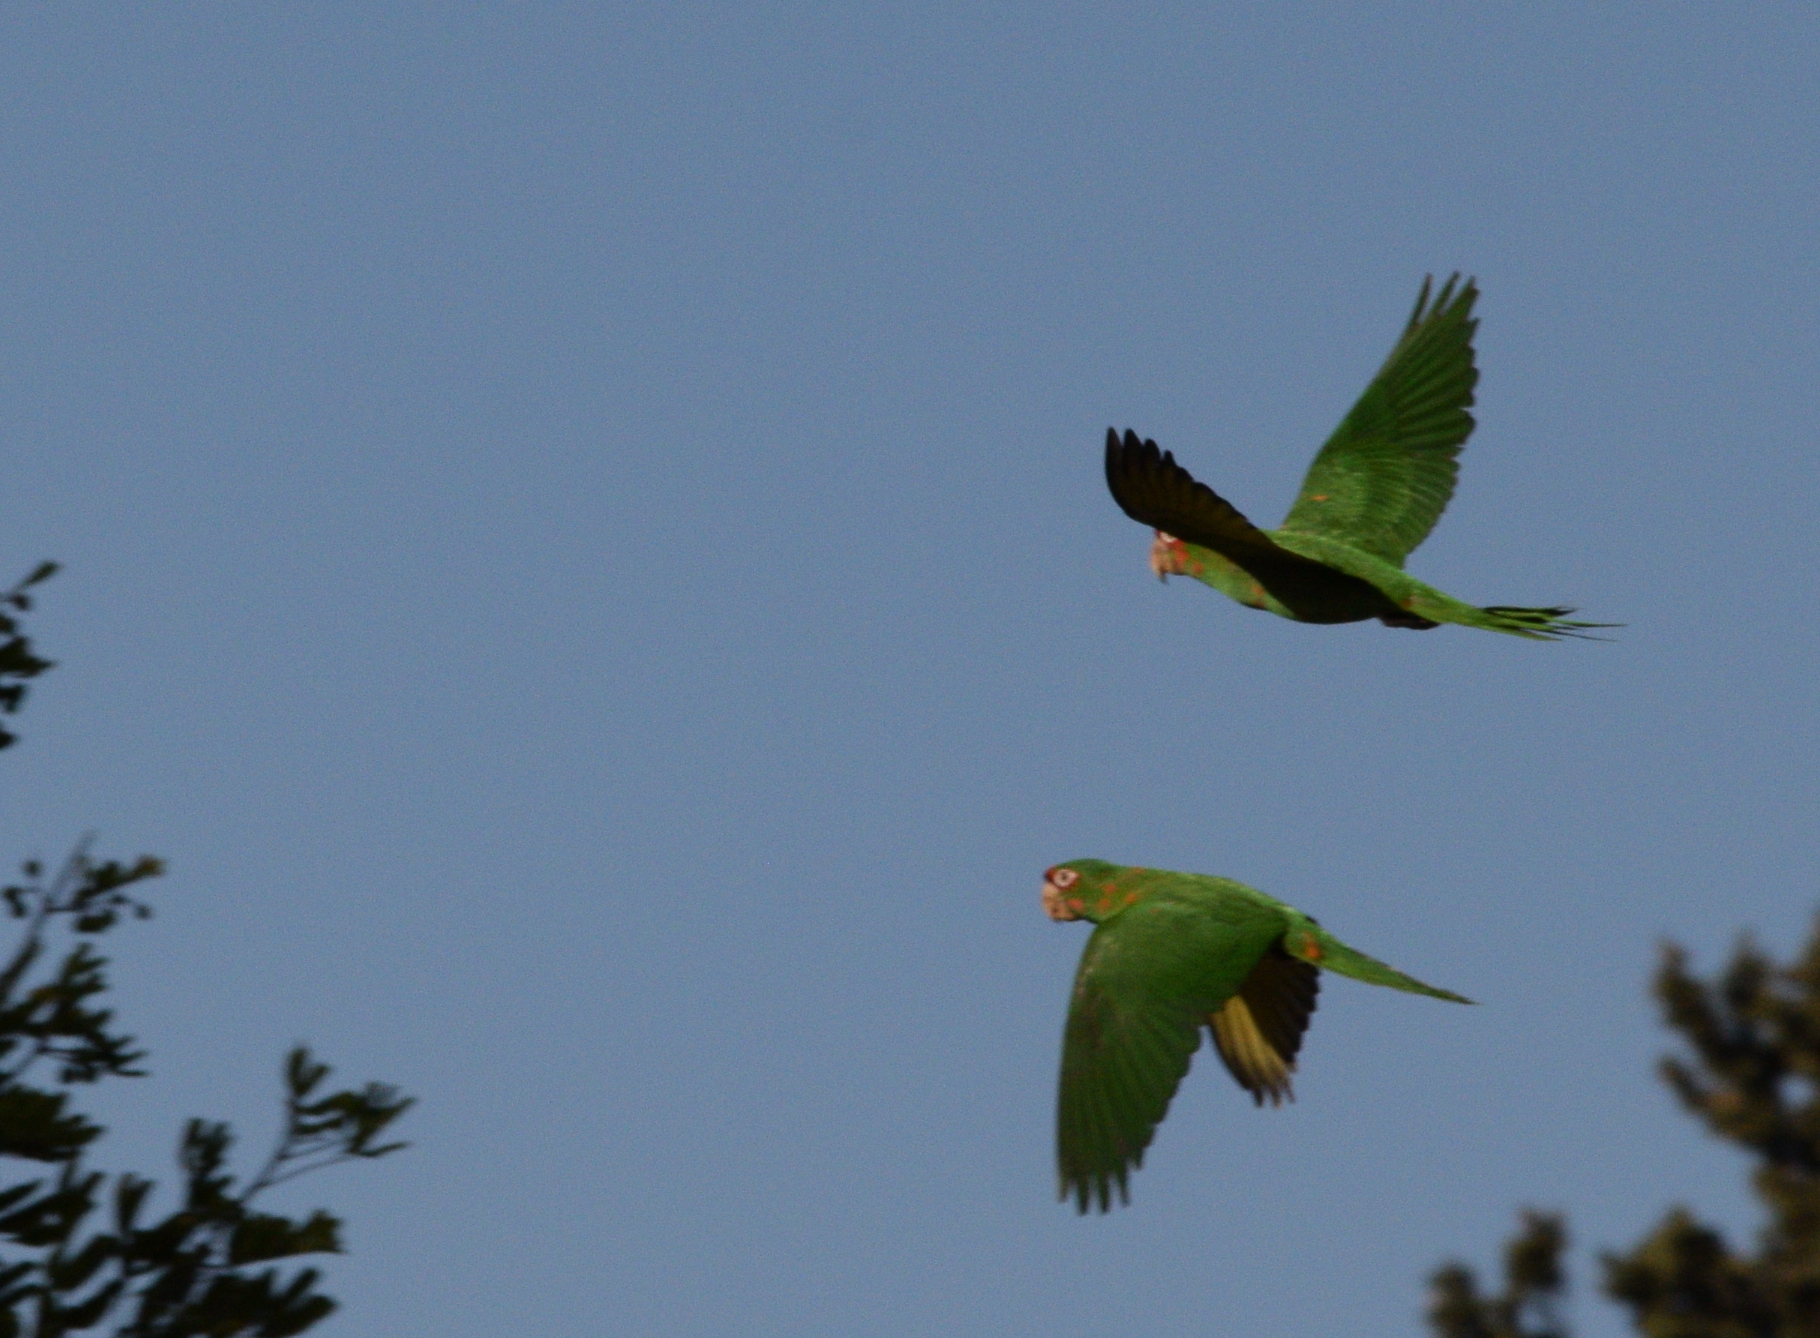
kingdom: Animalia
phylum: Chordata
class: Aves
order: Psittaciformes
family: Psittacidae
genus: Aratinga
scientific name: Aratinga mitrata
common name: Mitred parakeet
